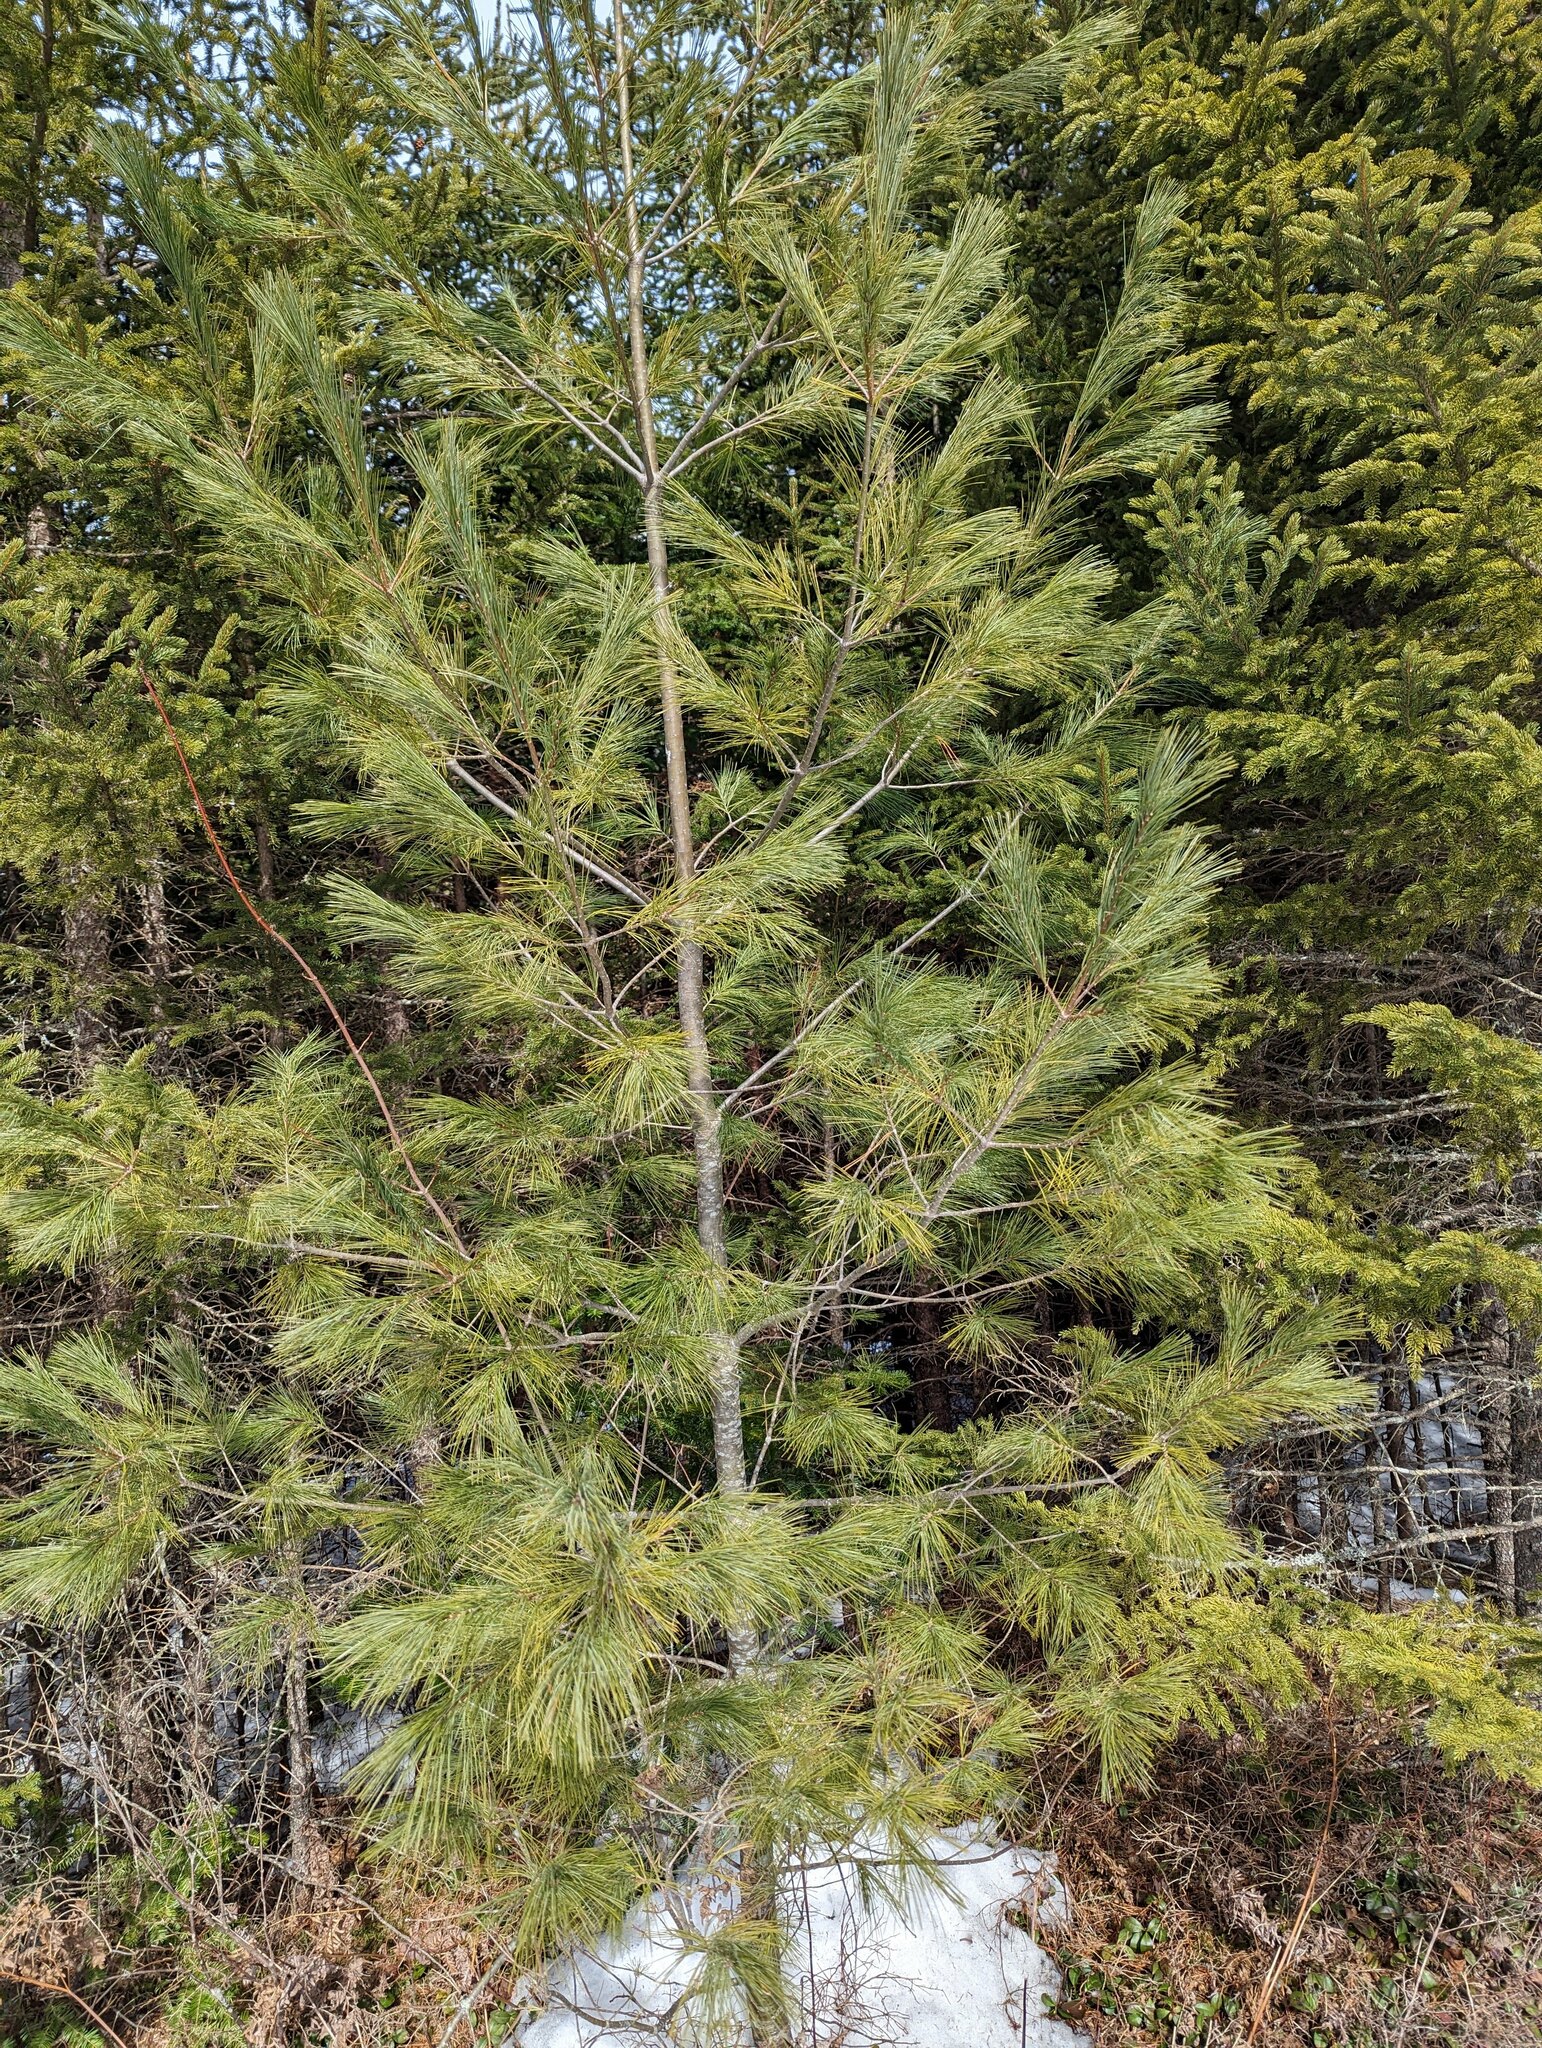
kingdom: Plantae
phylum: Tracheophyta
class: Pinopsida
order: Pinales
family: Pinaceae
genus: Pinus
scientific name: Pinus strobus
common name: Weymouth pine
